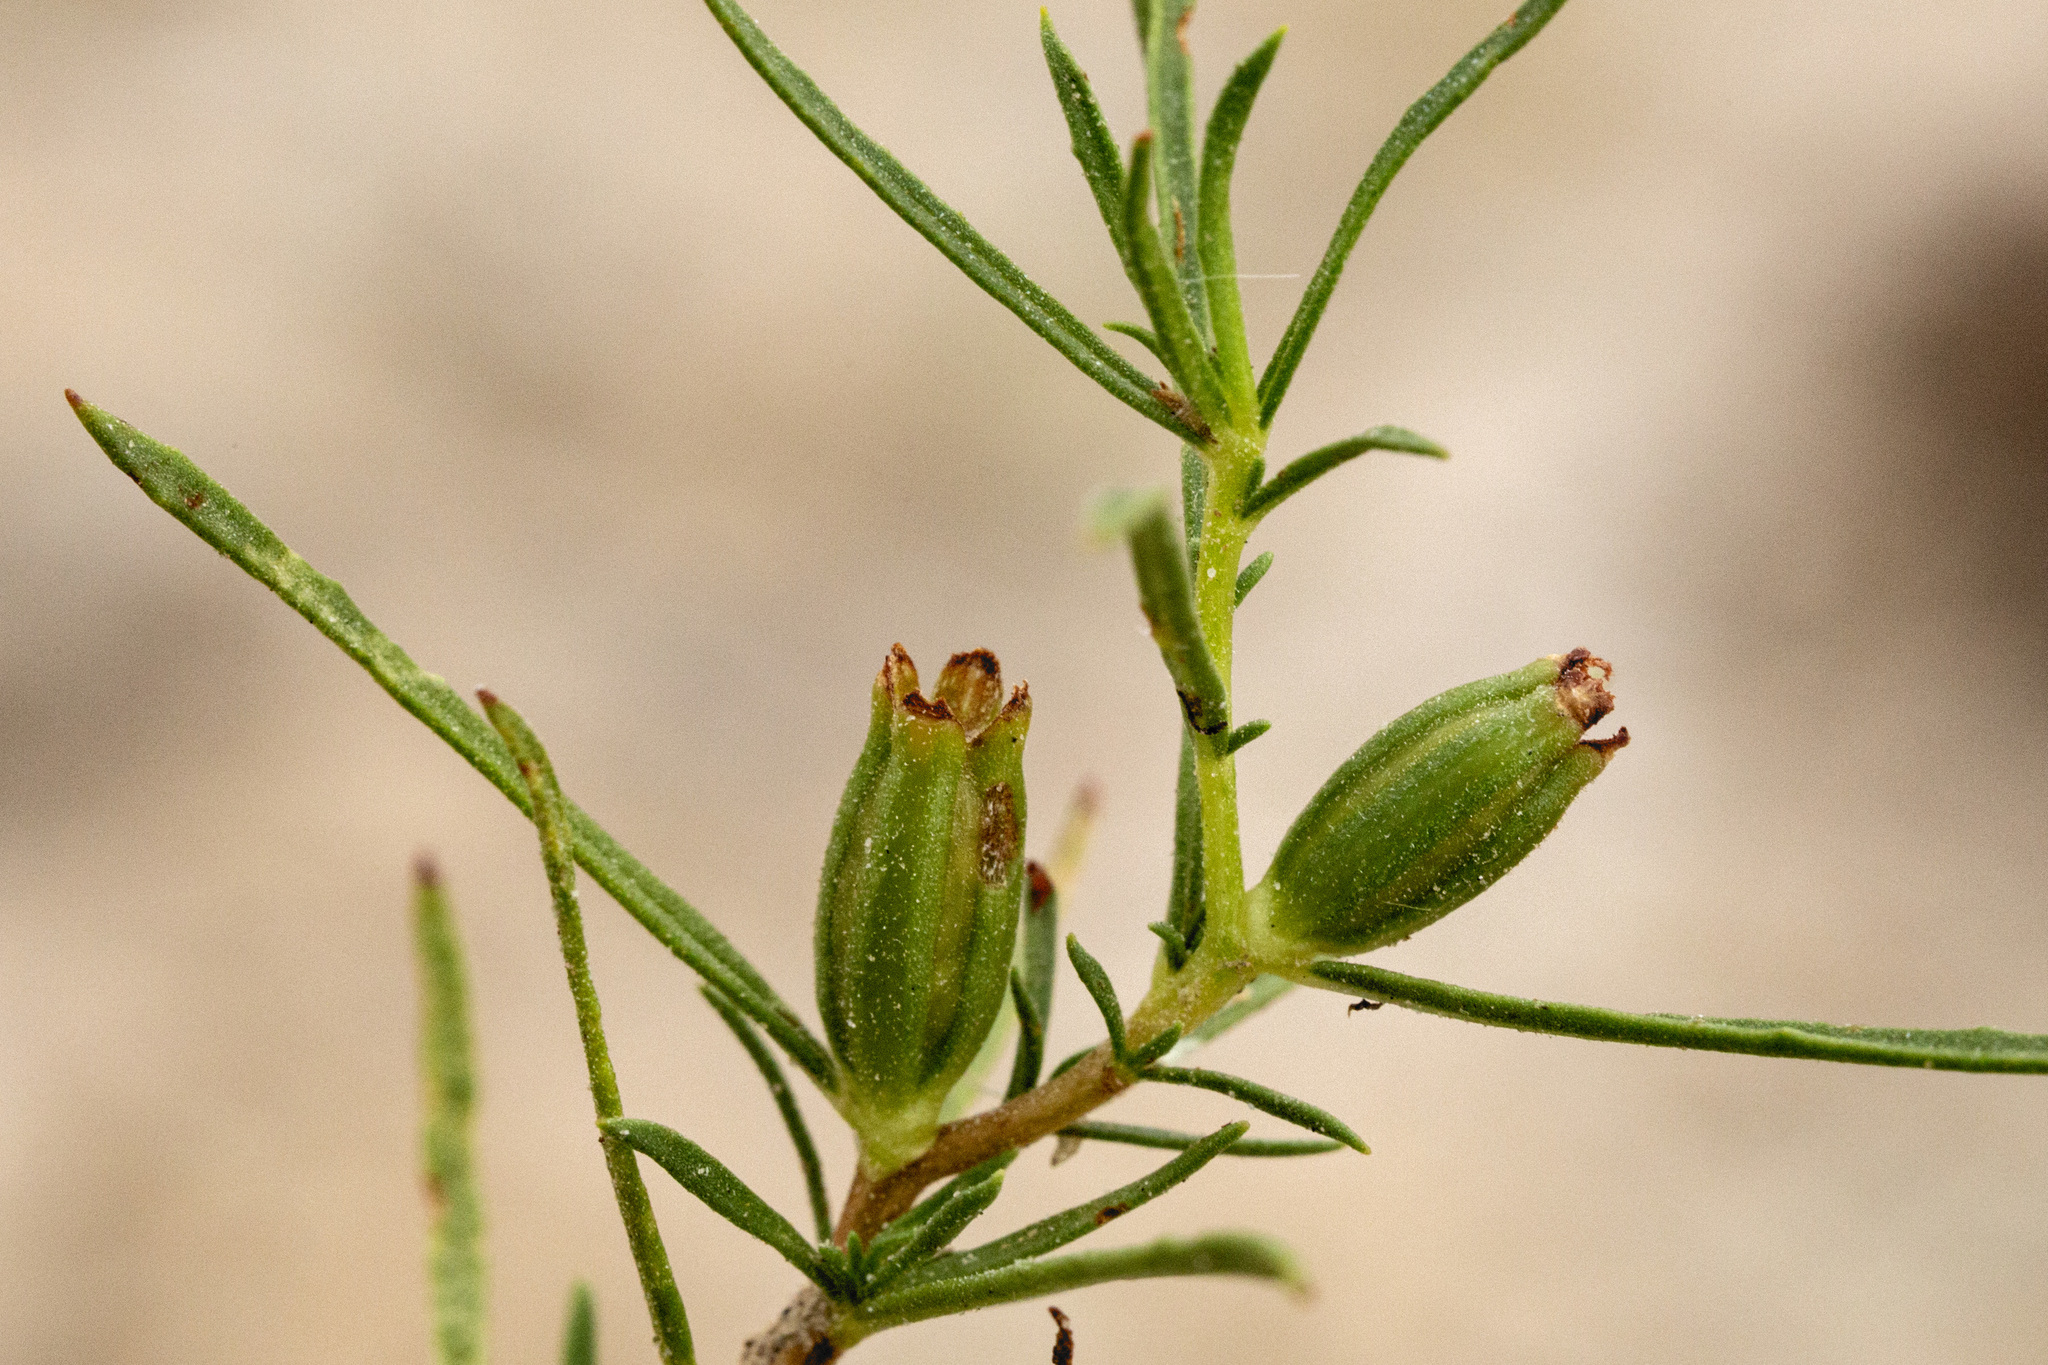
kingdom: Plantae
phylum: Tracheophyta
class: Magnoliopsida
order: Myrtales
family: Onagraceae
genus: Oenothera
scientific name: Oenothera hartwegii
